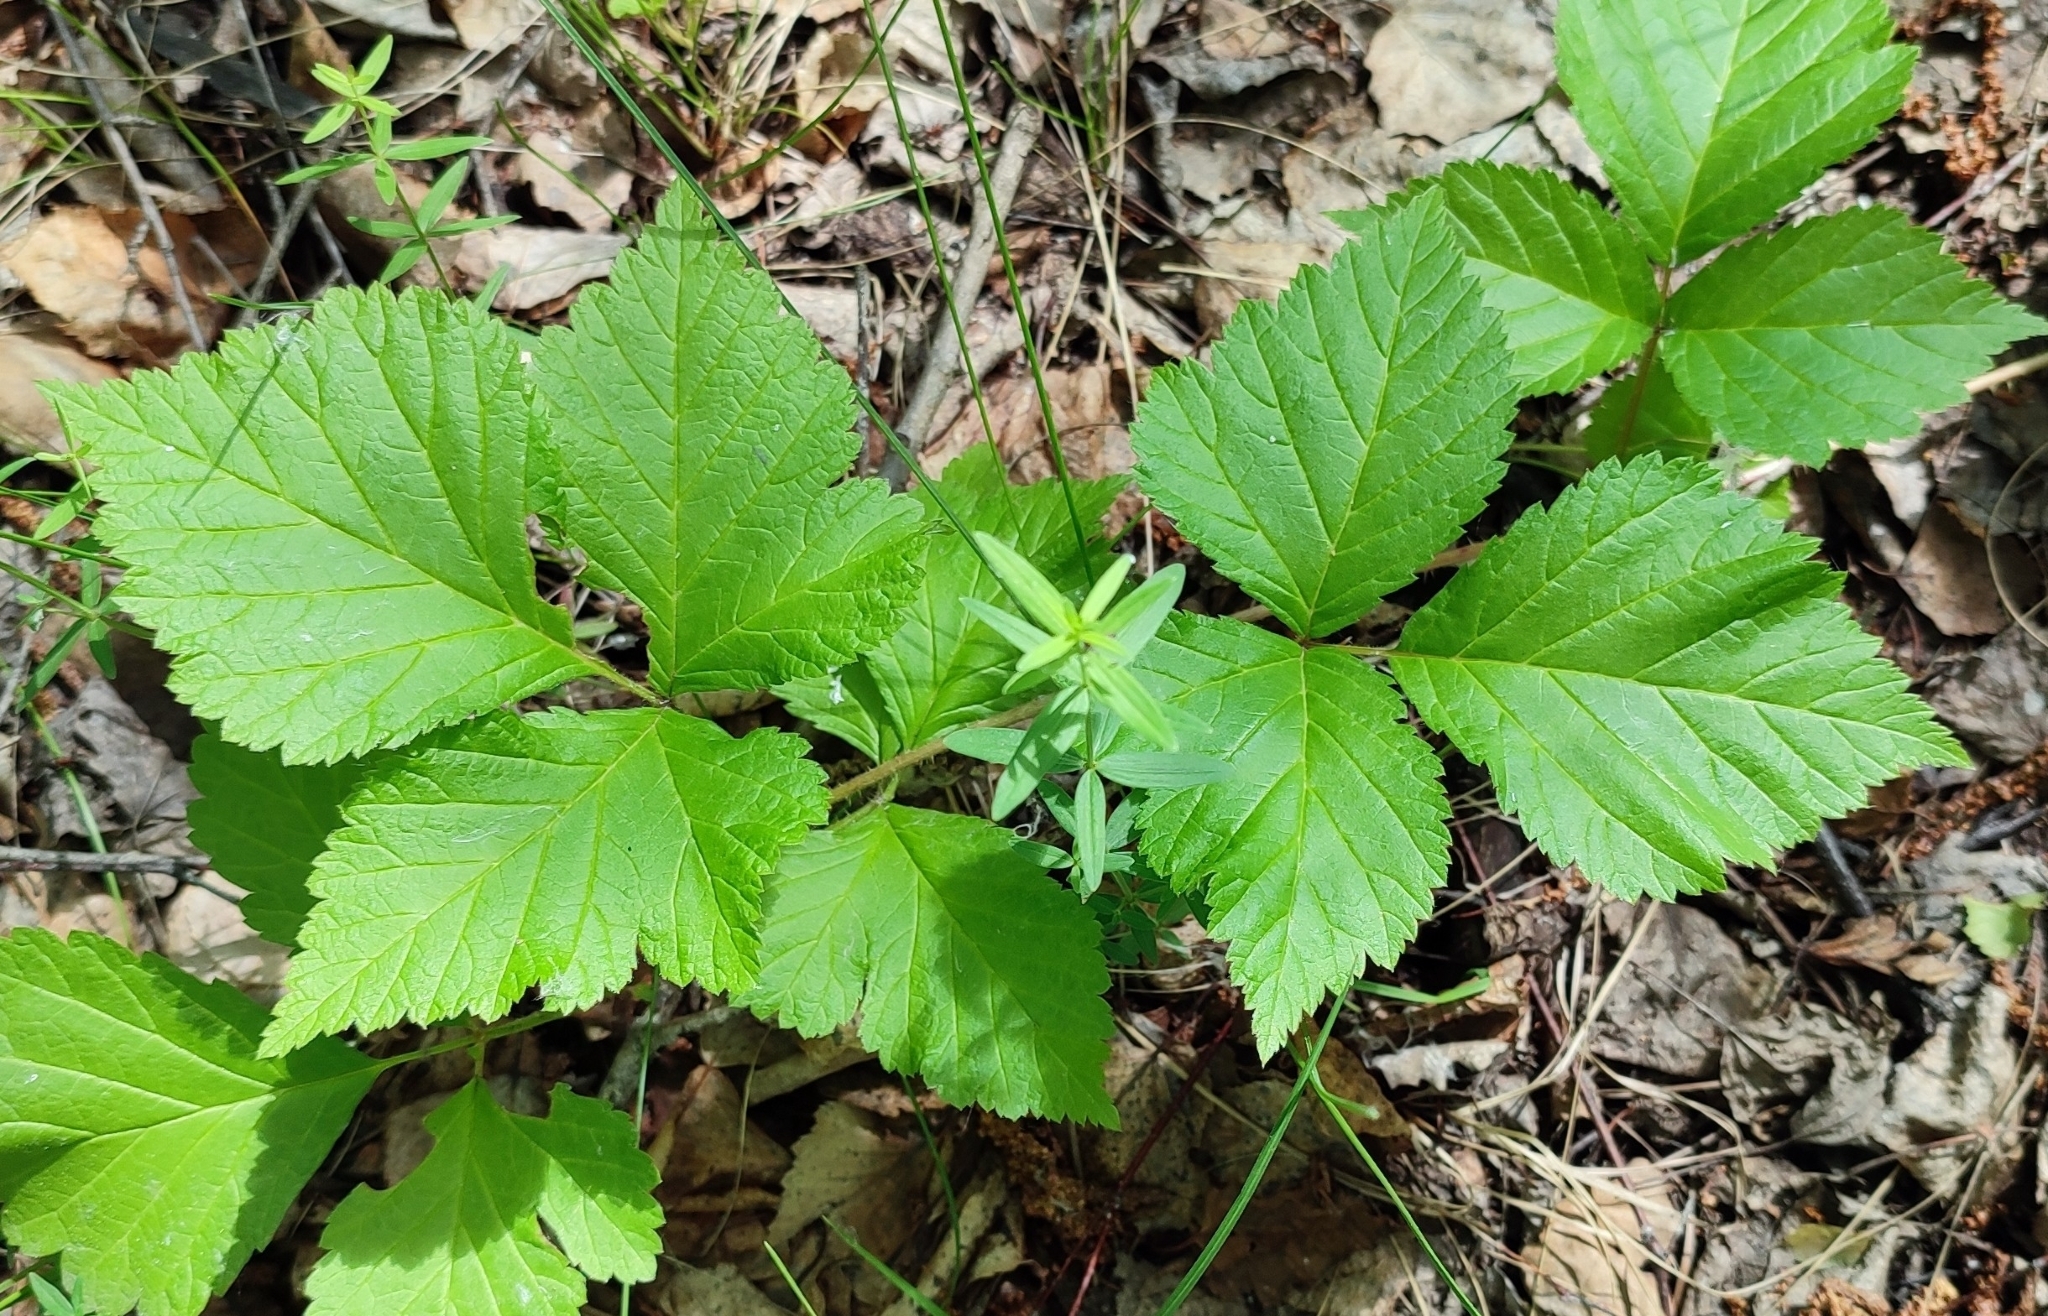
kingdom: Plantae
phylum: Tracheophyta
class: Magnoliopsida
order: Rosales
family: Rosaceae
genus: Rubus
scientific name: Rubus saxatilis
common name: Stone bramble
